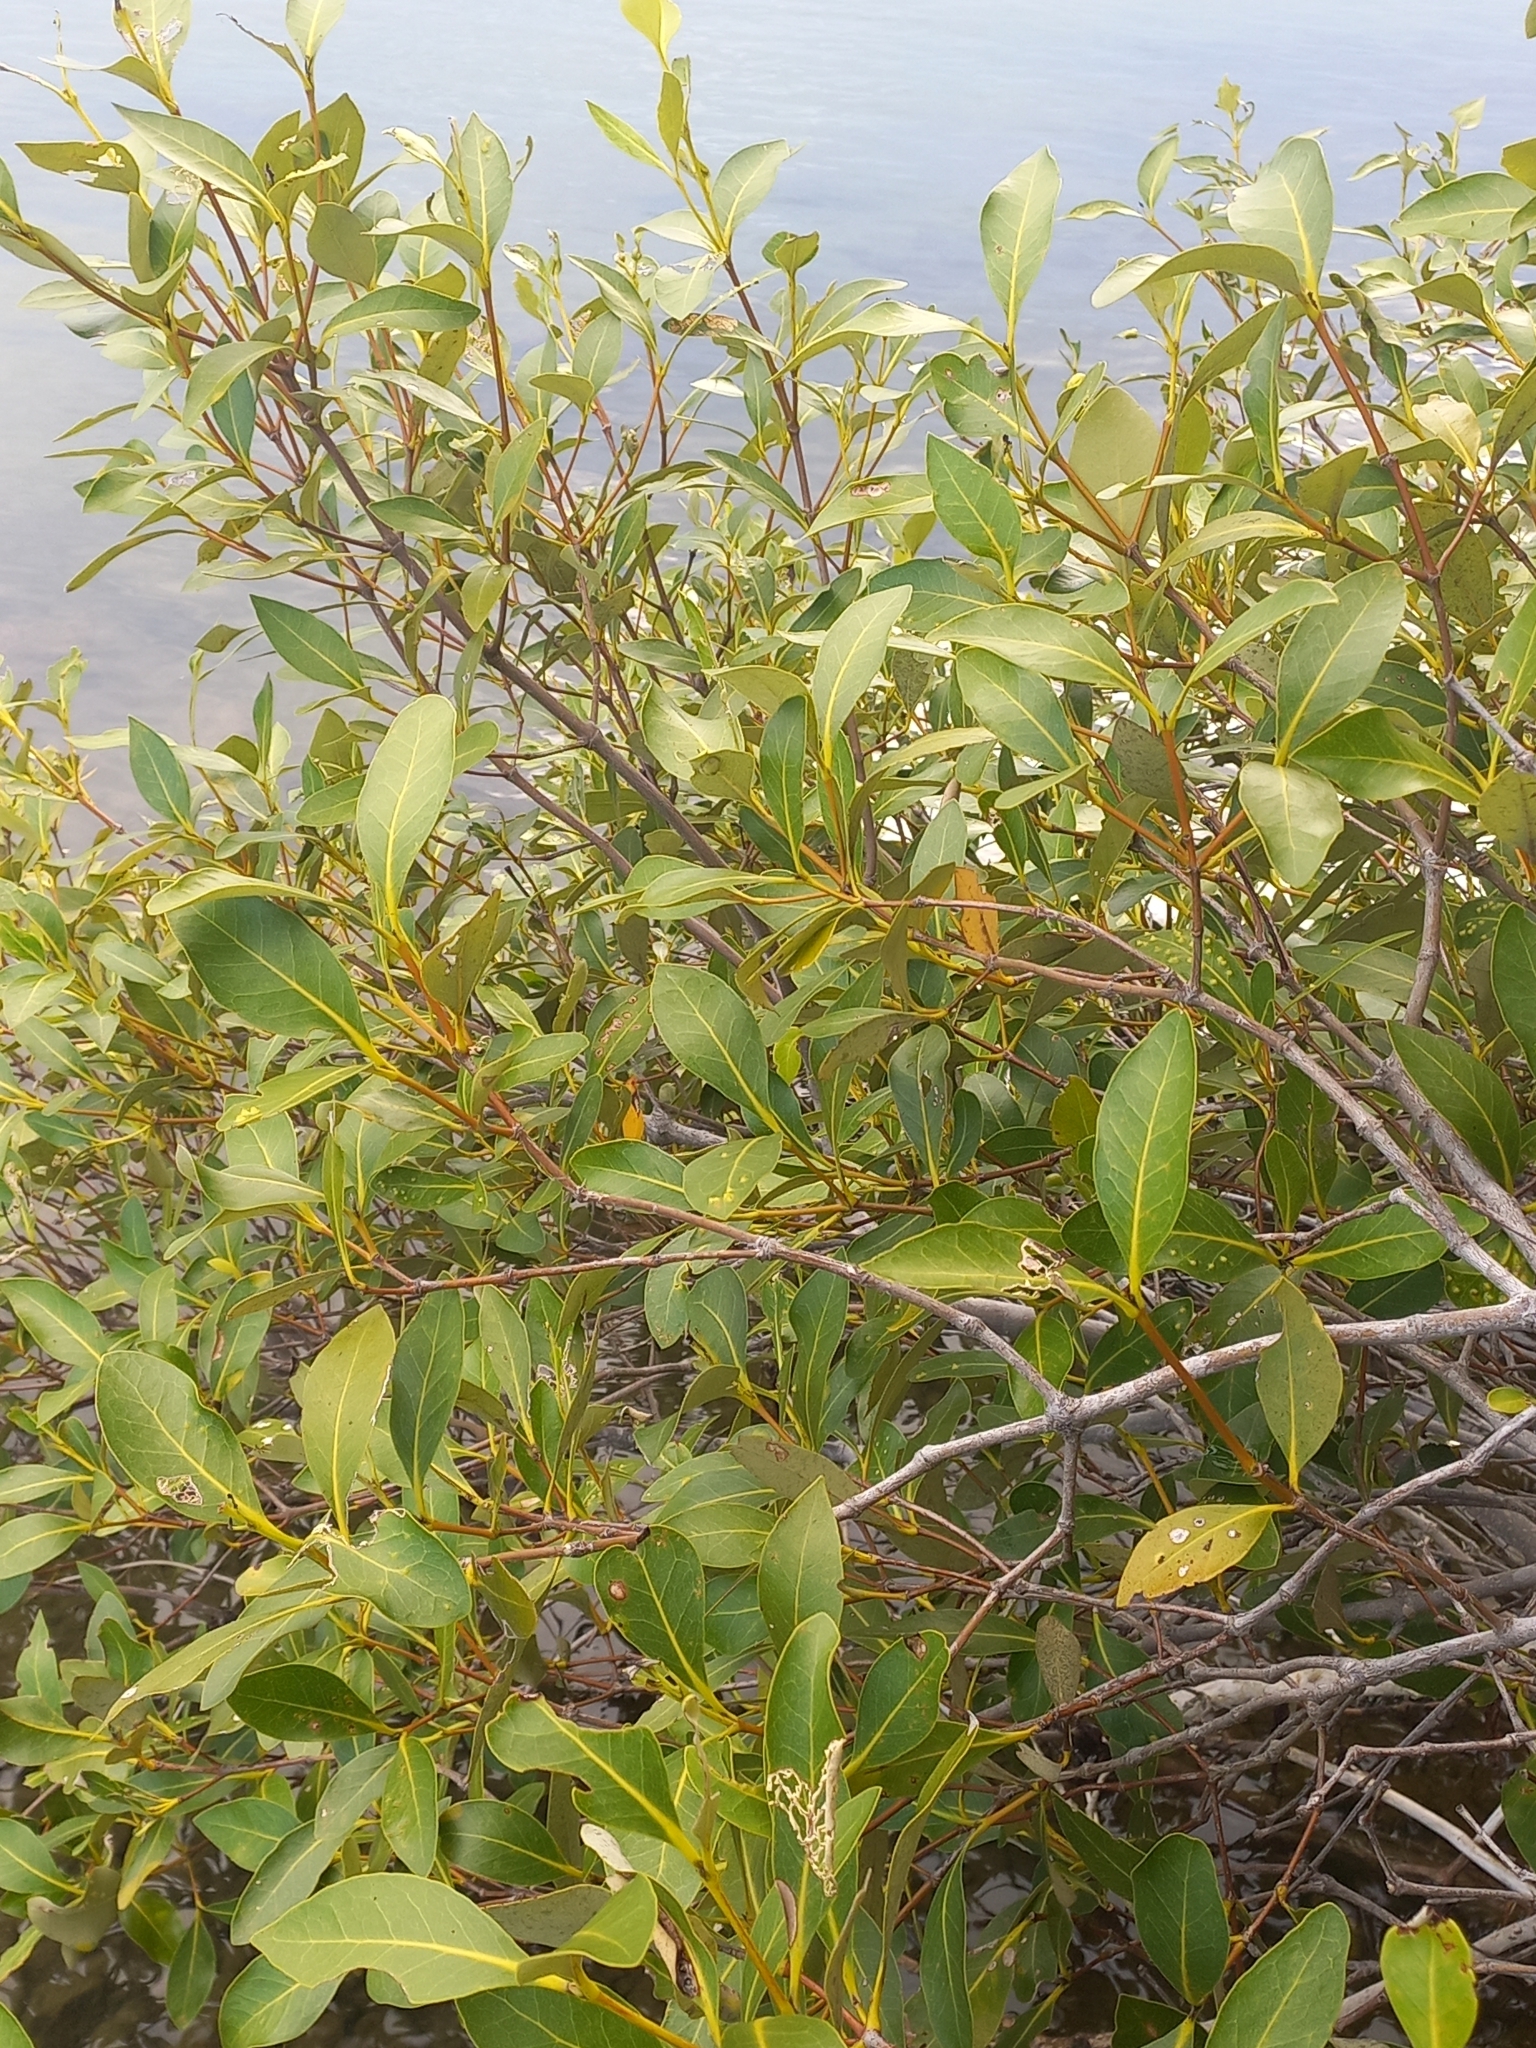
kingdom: Plantae
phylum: Tracheophyta
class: Magnoliopsida
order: Lamiales
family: Acanthaceae
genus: Avicennia
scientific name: Avicennia marina
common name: Gray mangrove
